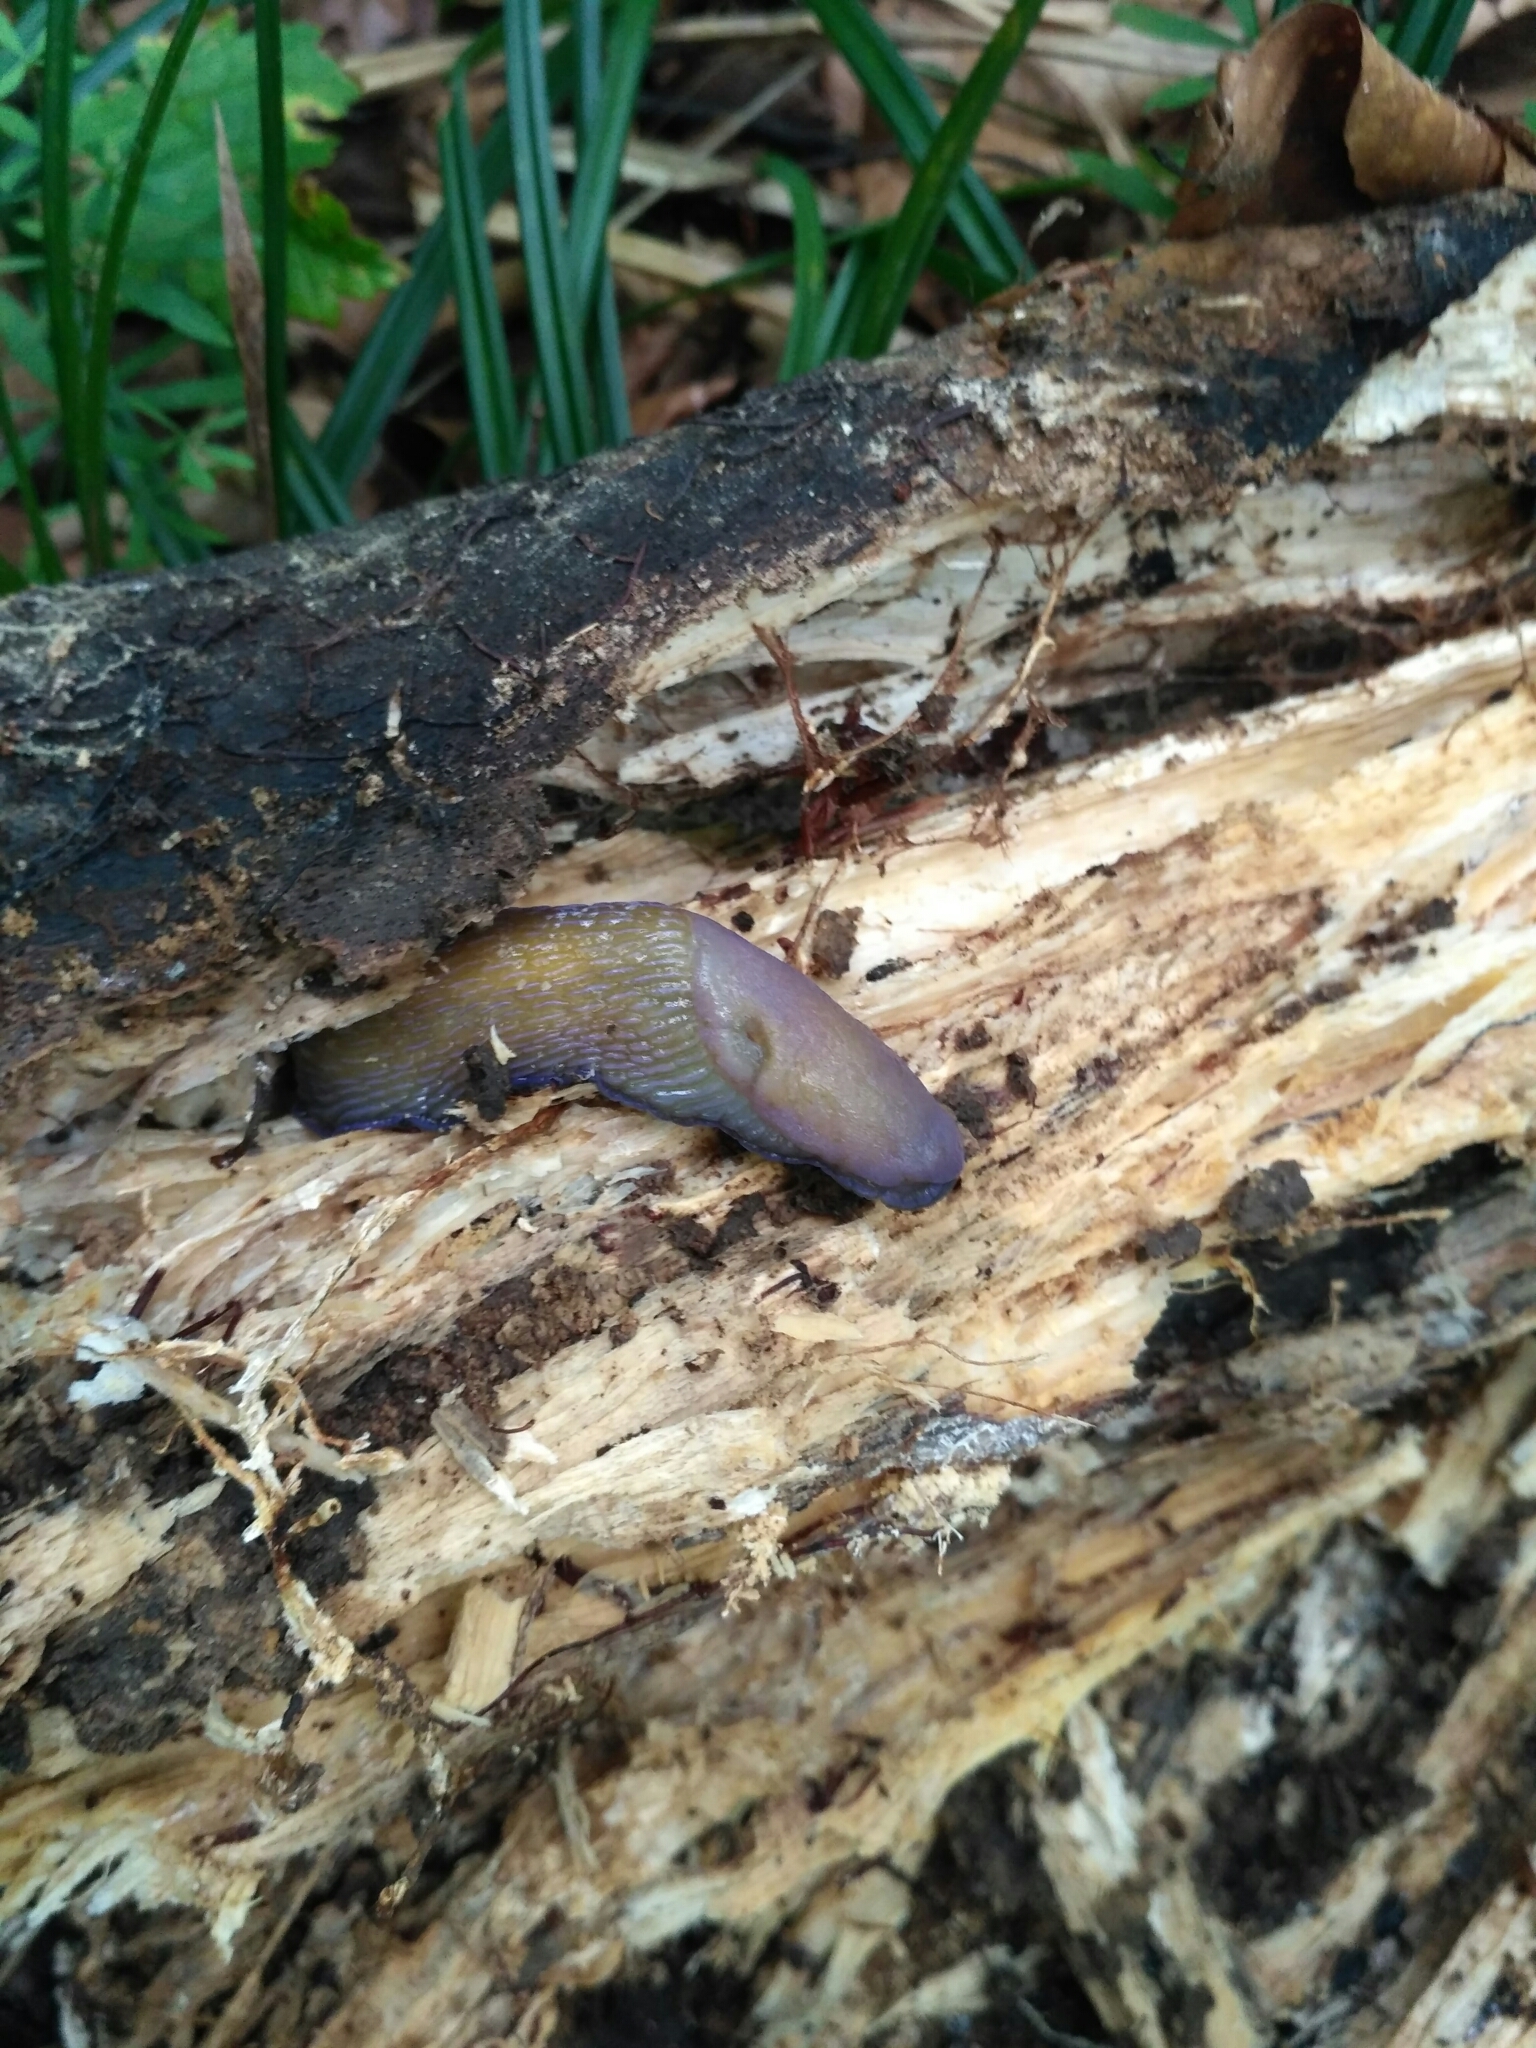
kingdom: Animalia
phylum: Mollusca
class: Gastropoda
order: Stylommatophora
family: Limacidae
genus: Bielzia
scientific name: Bielzia coerulans
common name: Carpathian blue slug
